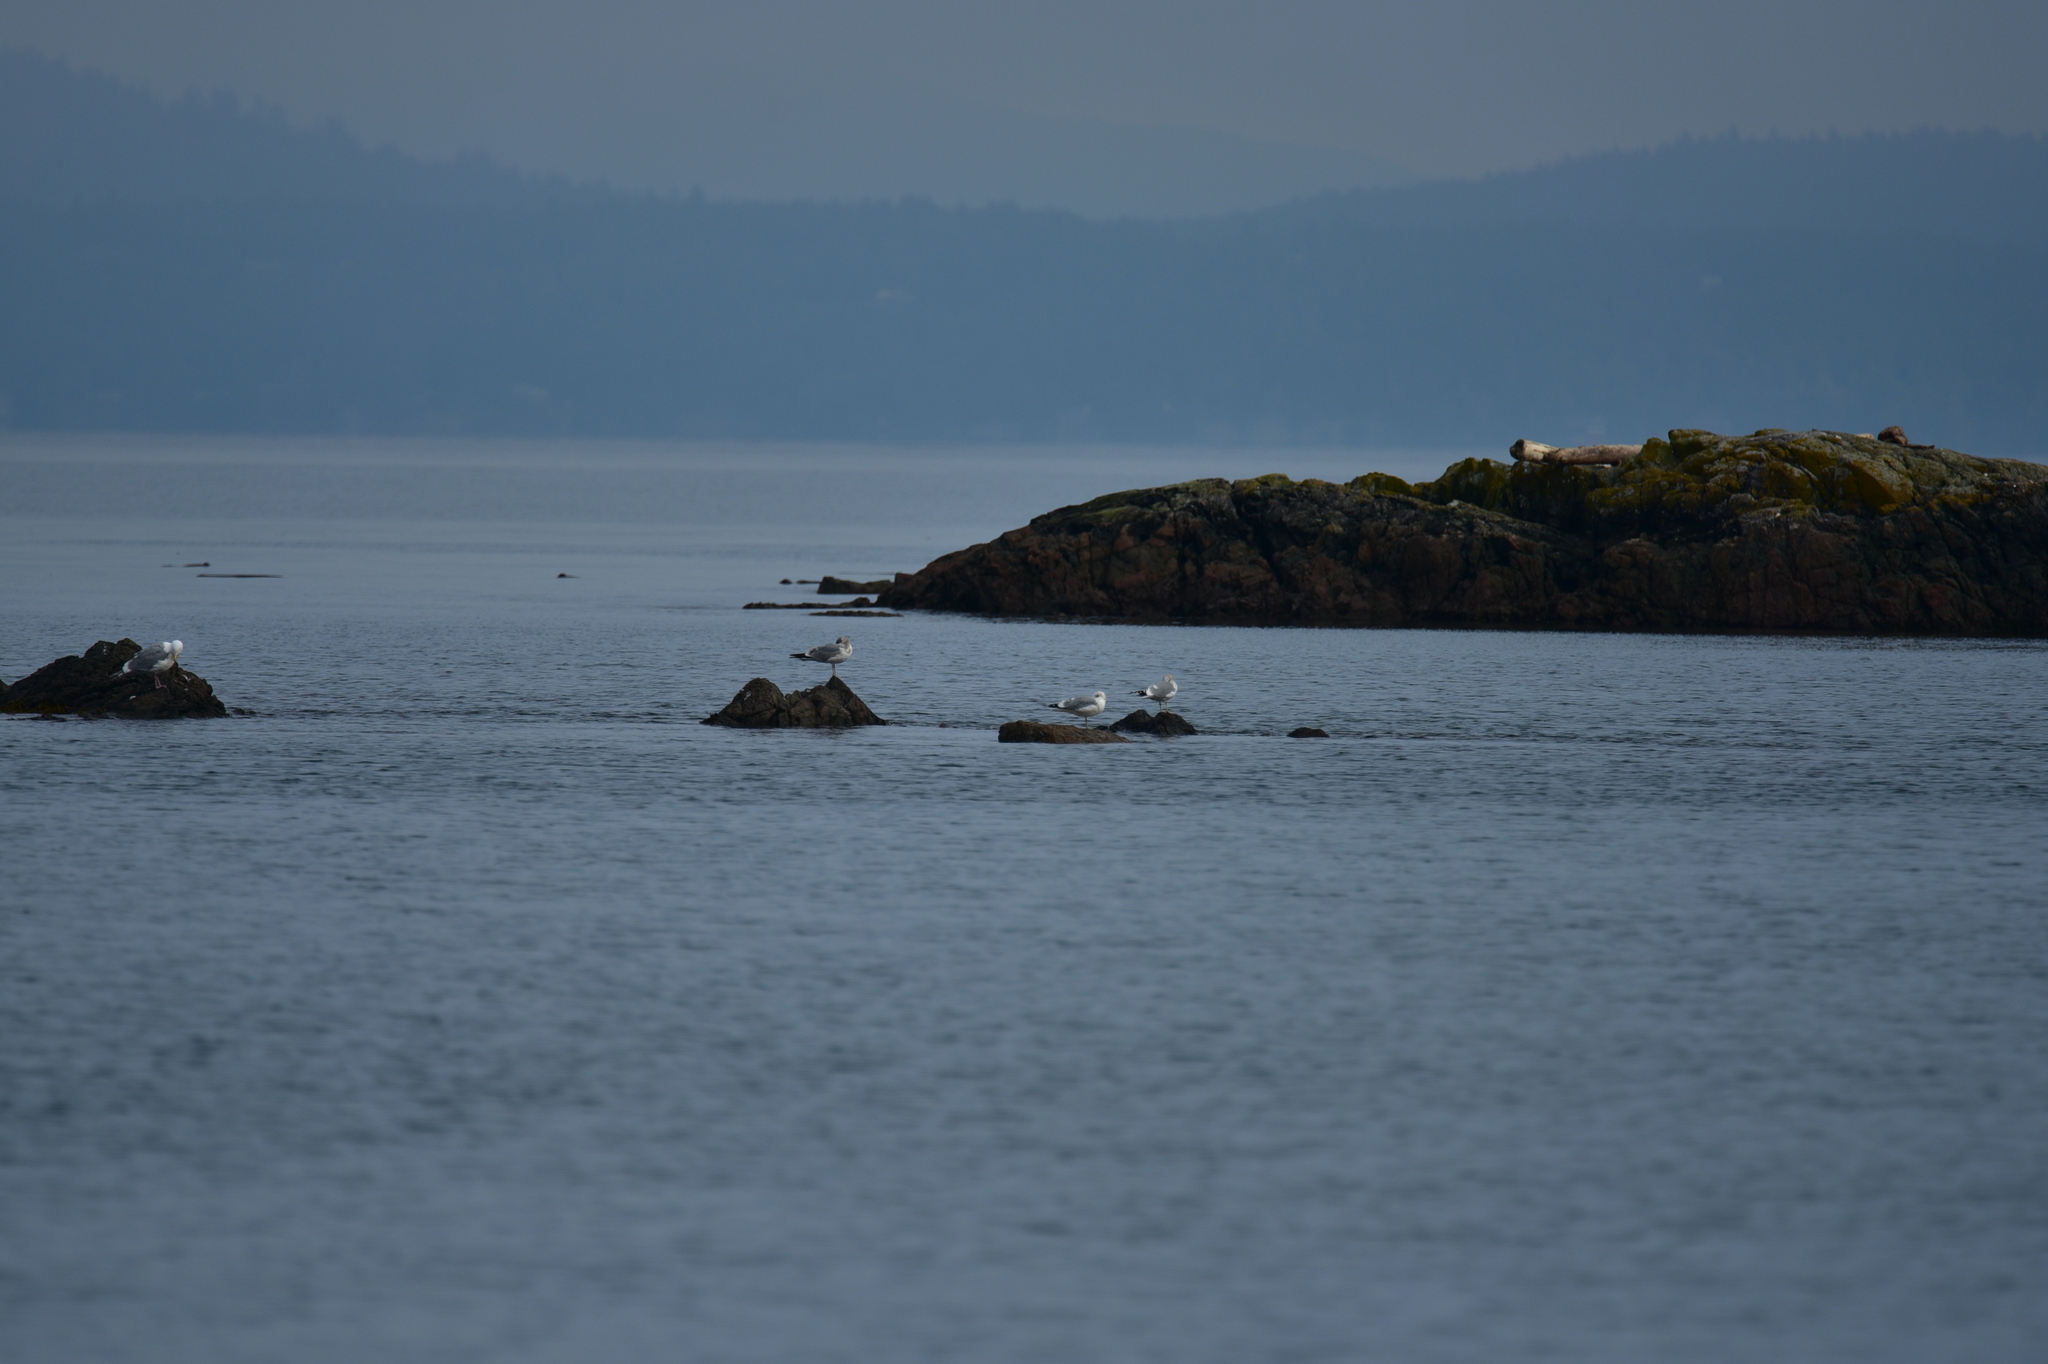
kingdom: Animalia
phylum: Chordata
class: Aves
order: Charadriiformes
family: Laridae
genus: Larus
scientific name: Larus brachyrhynchus
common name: Short-billed gull
